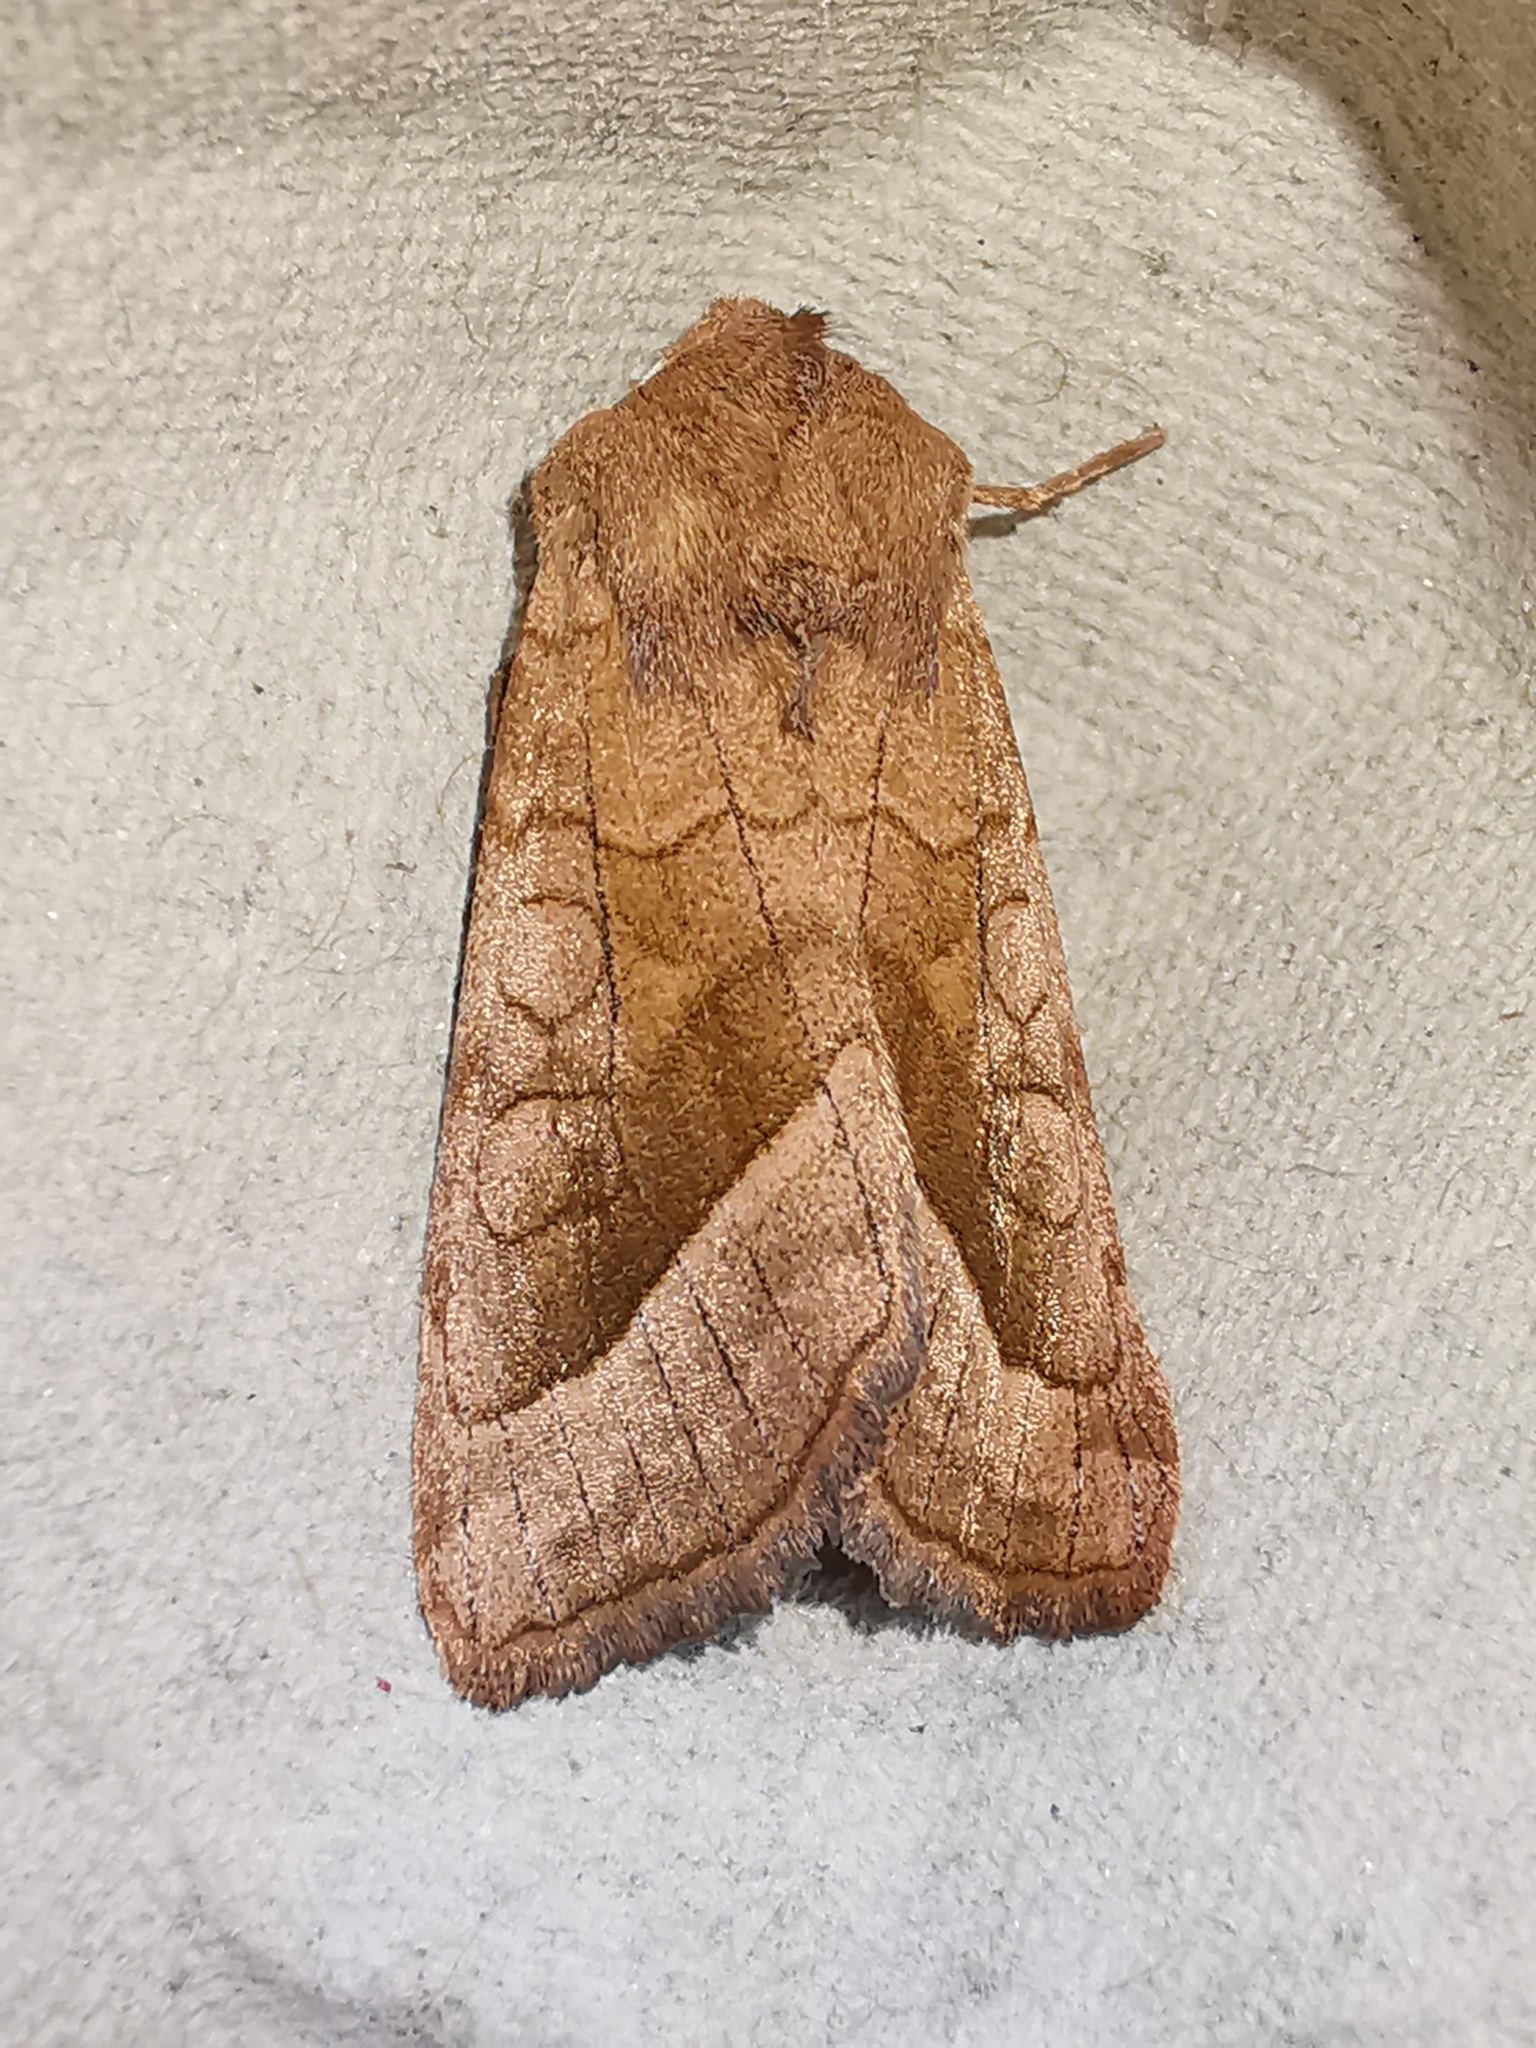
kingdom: Animalia
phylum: Arthropoda
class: Insecta
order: Lepidoptera
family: Noctuidae
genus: Hydraecia
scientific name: Hydraecia micacea
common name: Rosy rustic
